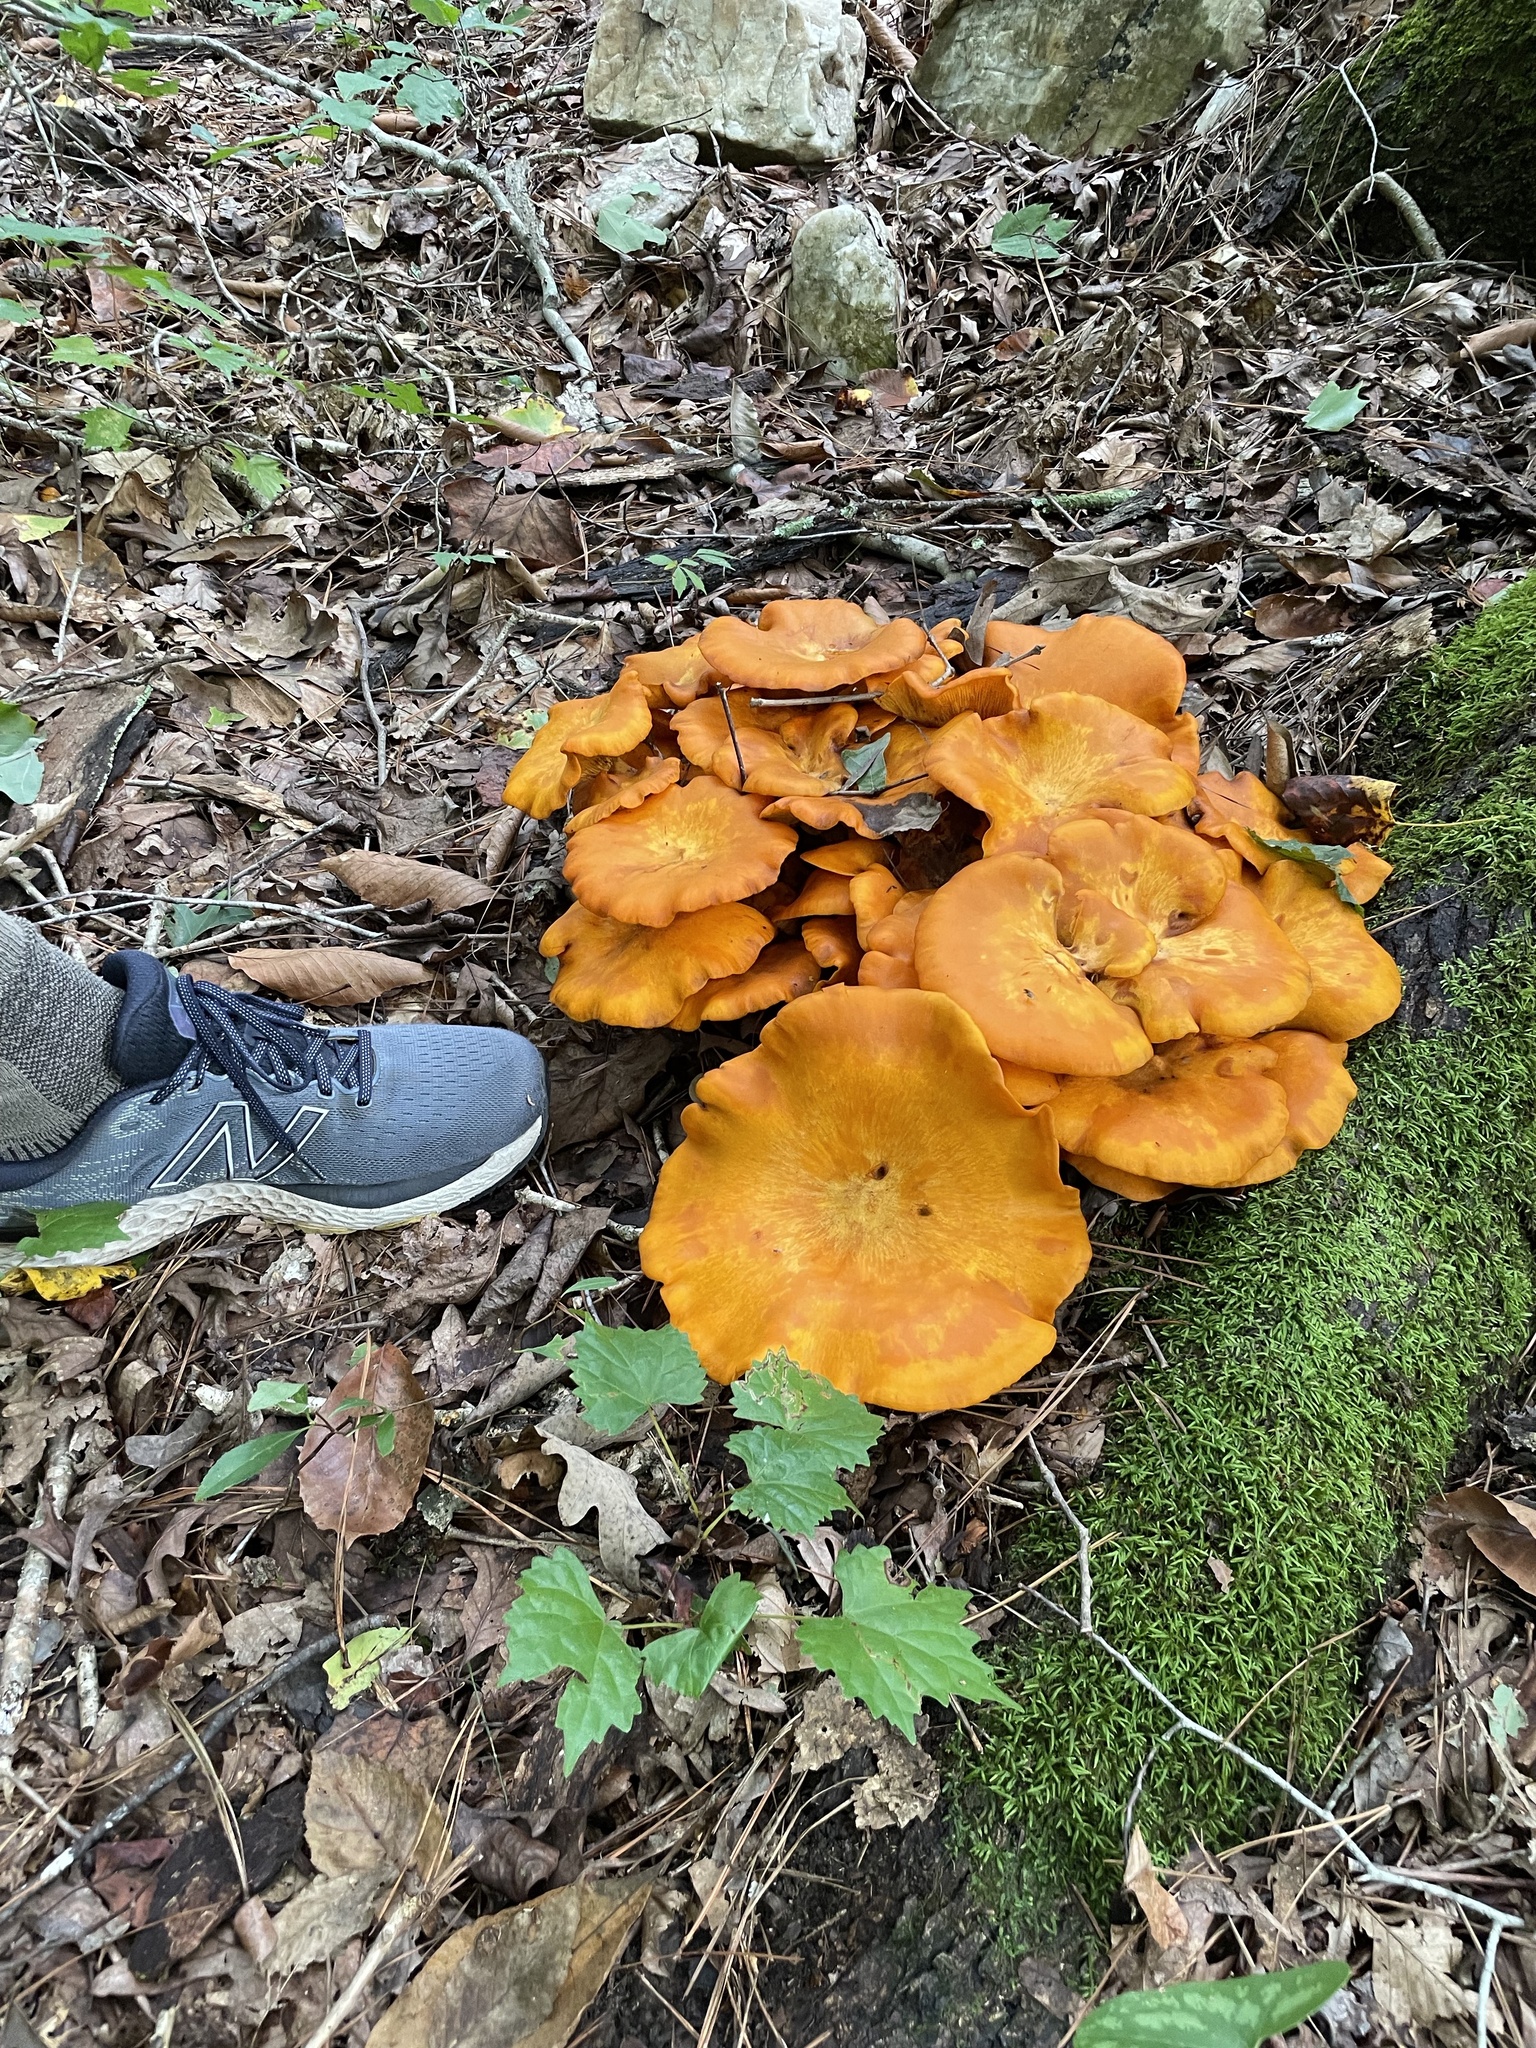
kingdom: Fungi
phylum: Basidiomycota
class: Agaricomycetes
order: Agaricales
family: Omphalotaceae
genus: Omphalotus
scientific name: Omphalotus illudens
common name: Jack o lantern
